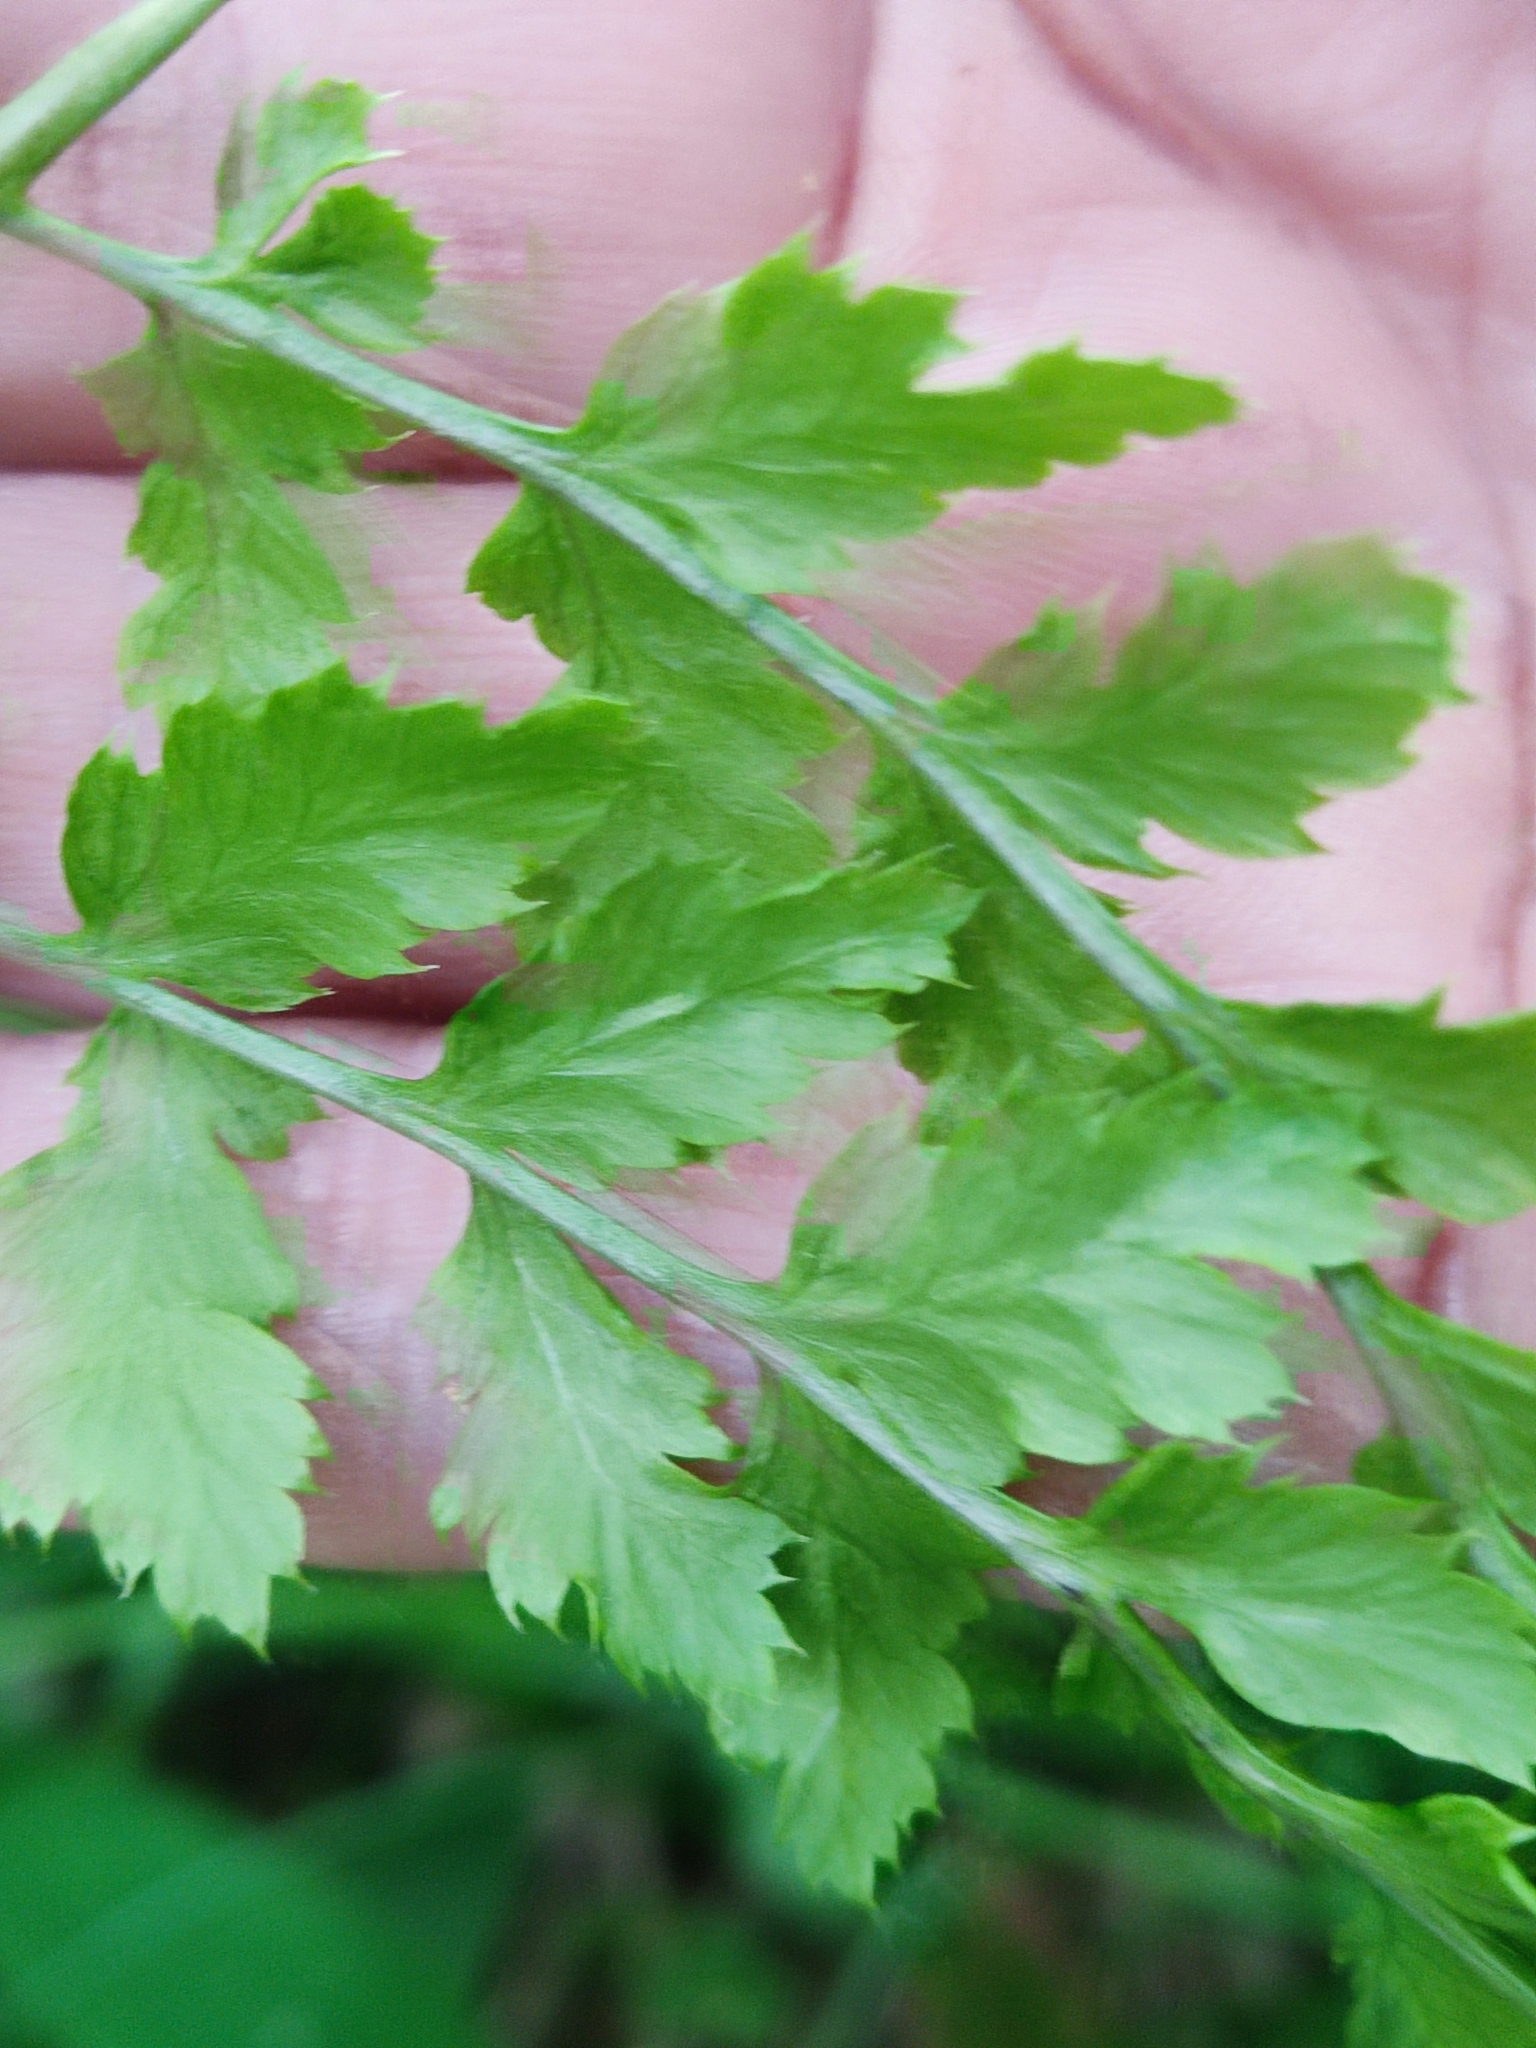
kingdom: Plantae
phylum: Tracheophyta
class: Polypodiopsida
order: Polypodiales
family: Dryopteridaceae
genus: Dryopteris
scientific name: Dryopteris carthusiana
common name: Narrow buckler-fern
